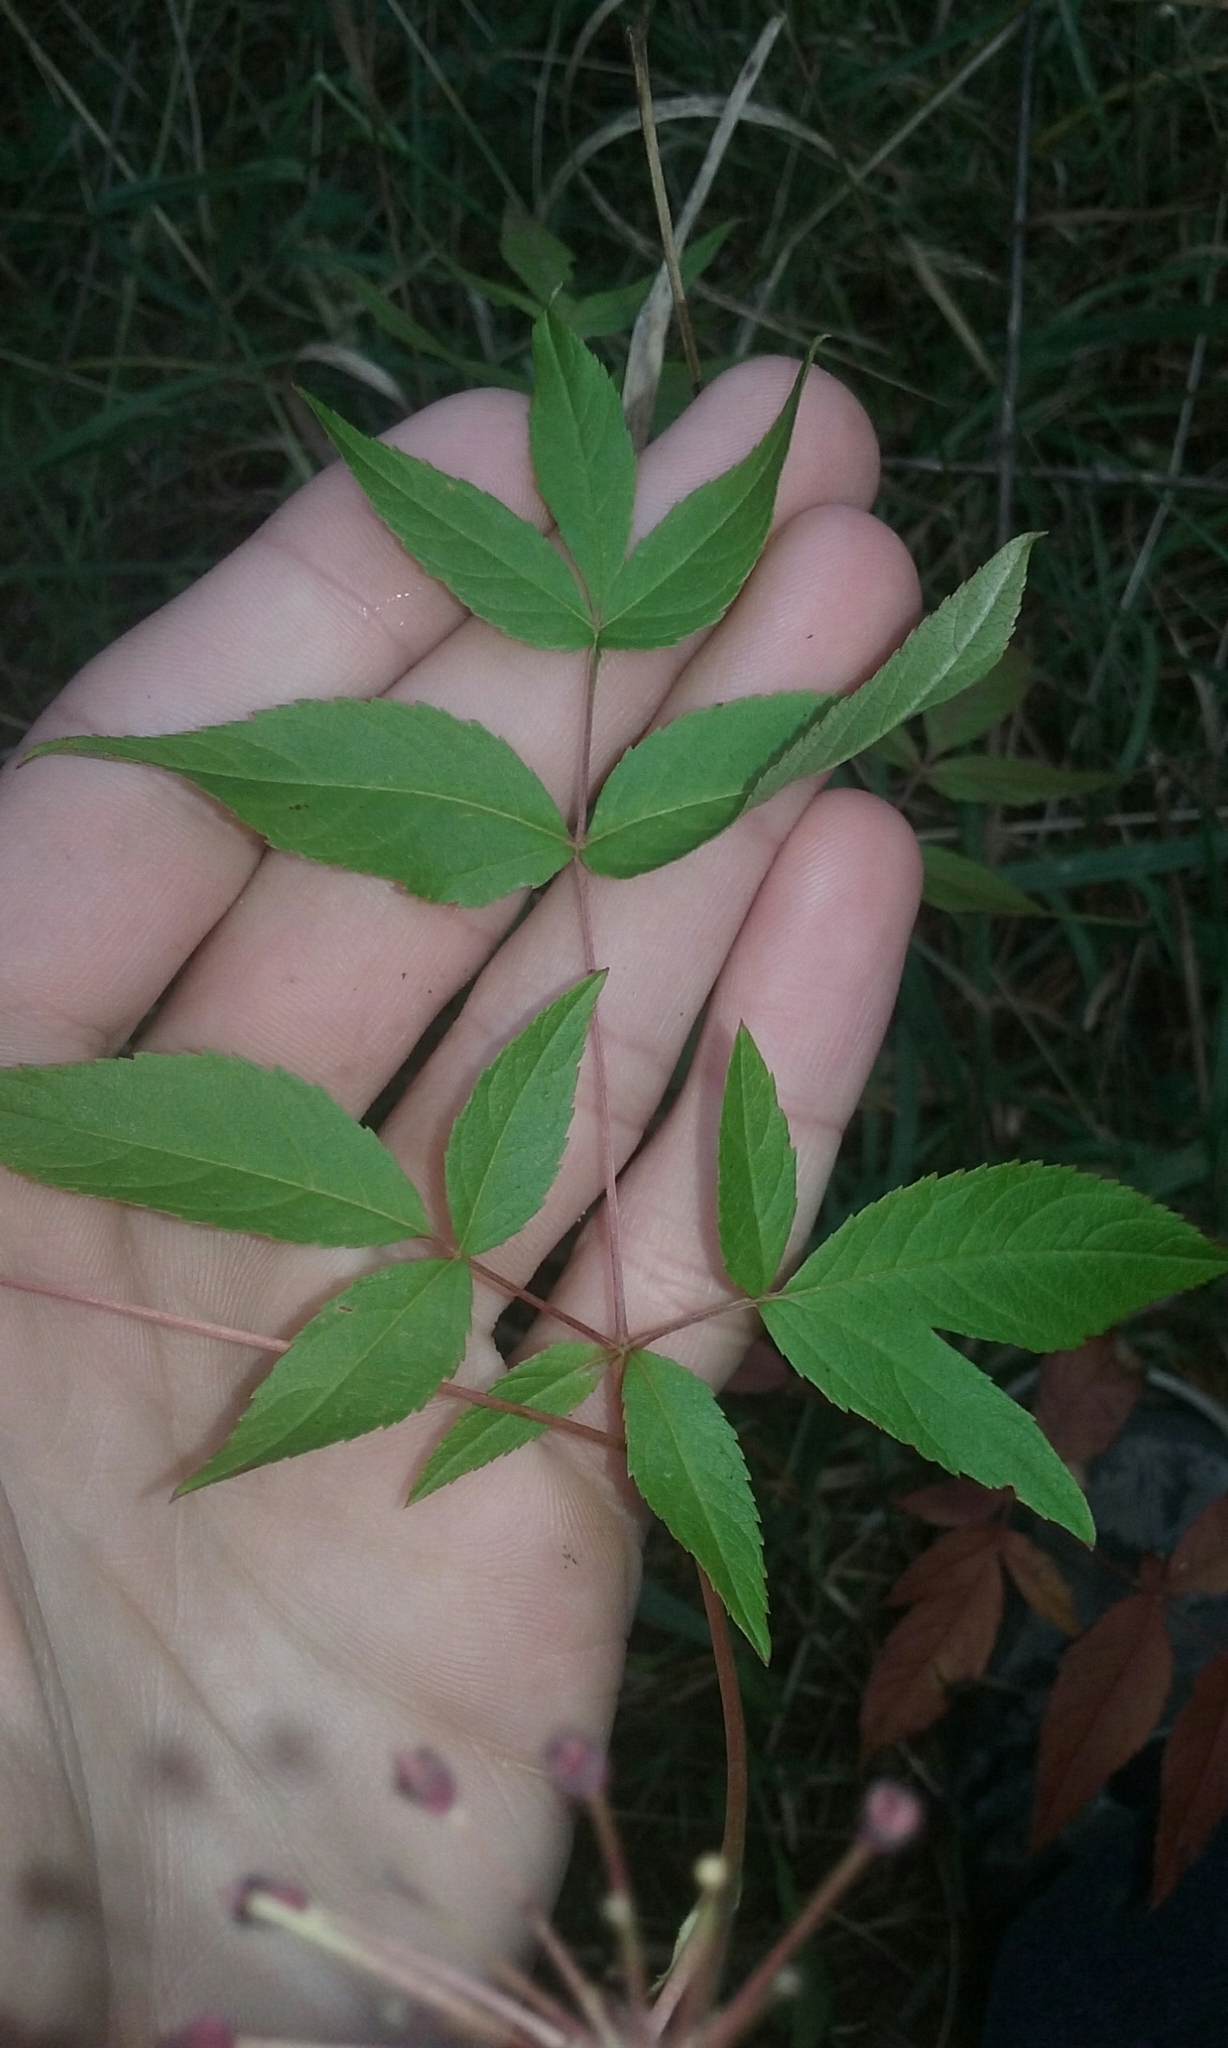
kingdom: Plantae
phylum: Tracheophyta
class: Magnoliopsida
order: Apiales
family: Araliaceae
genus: Aralia
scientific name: Aralia hispida
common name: Bristly sarsaparilla
